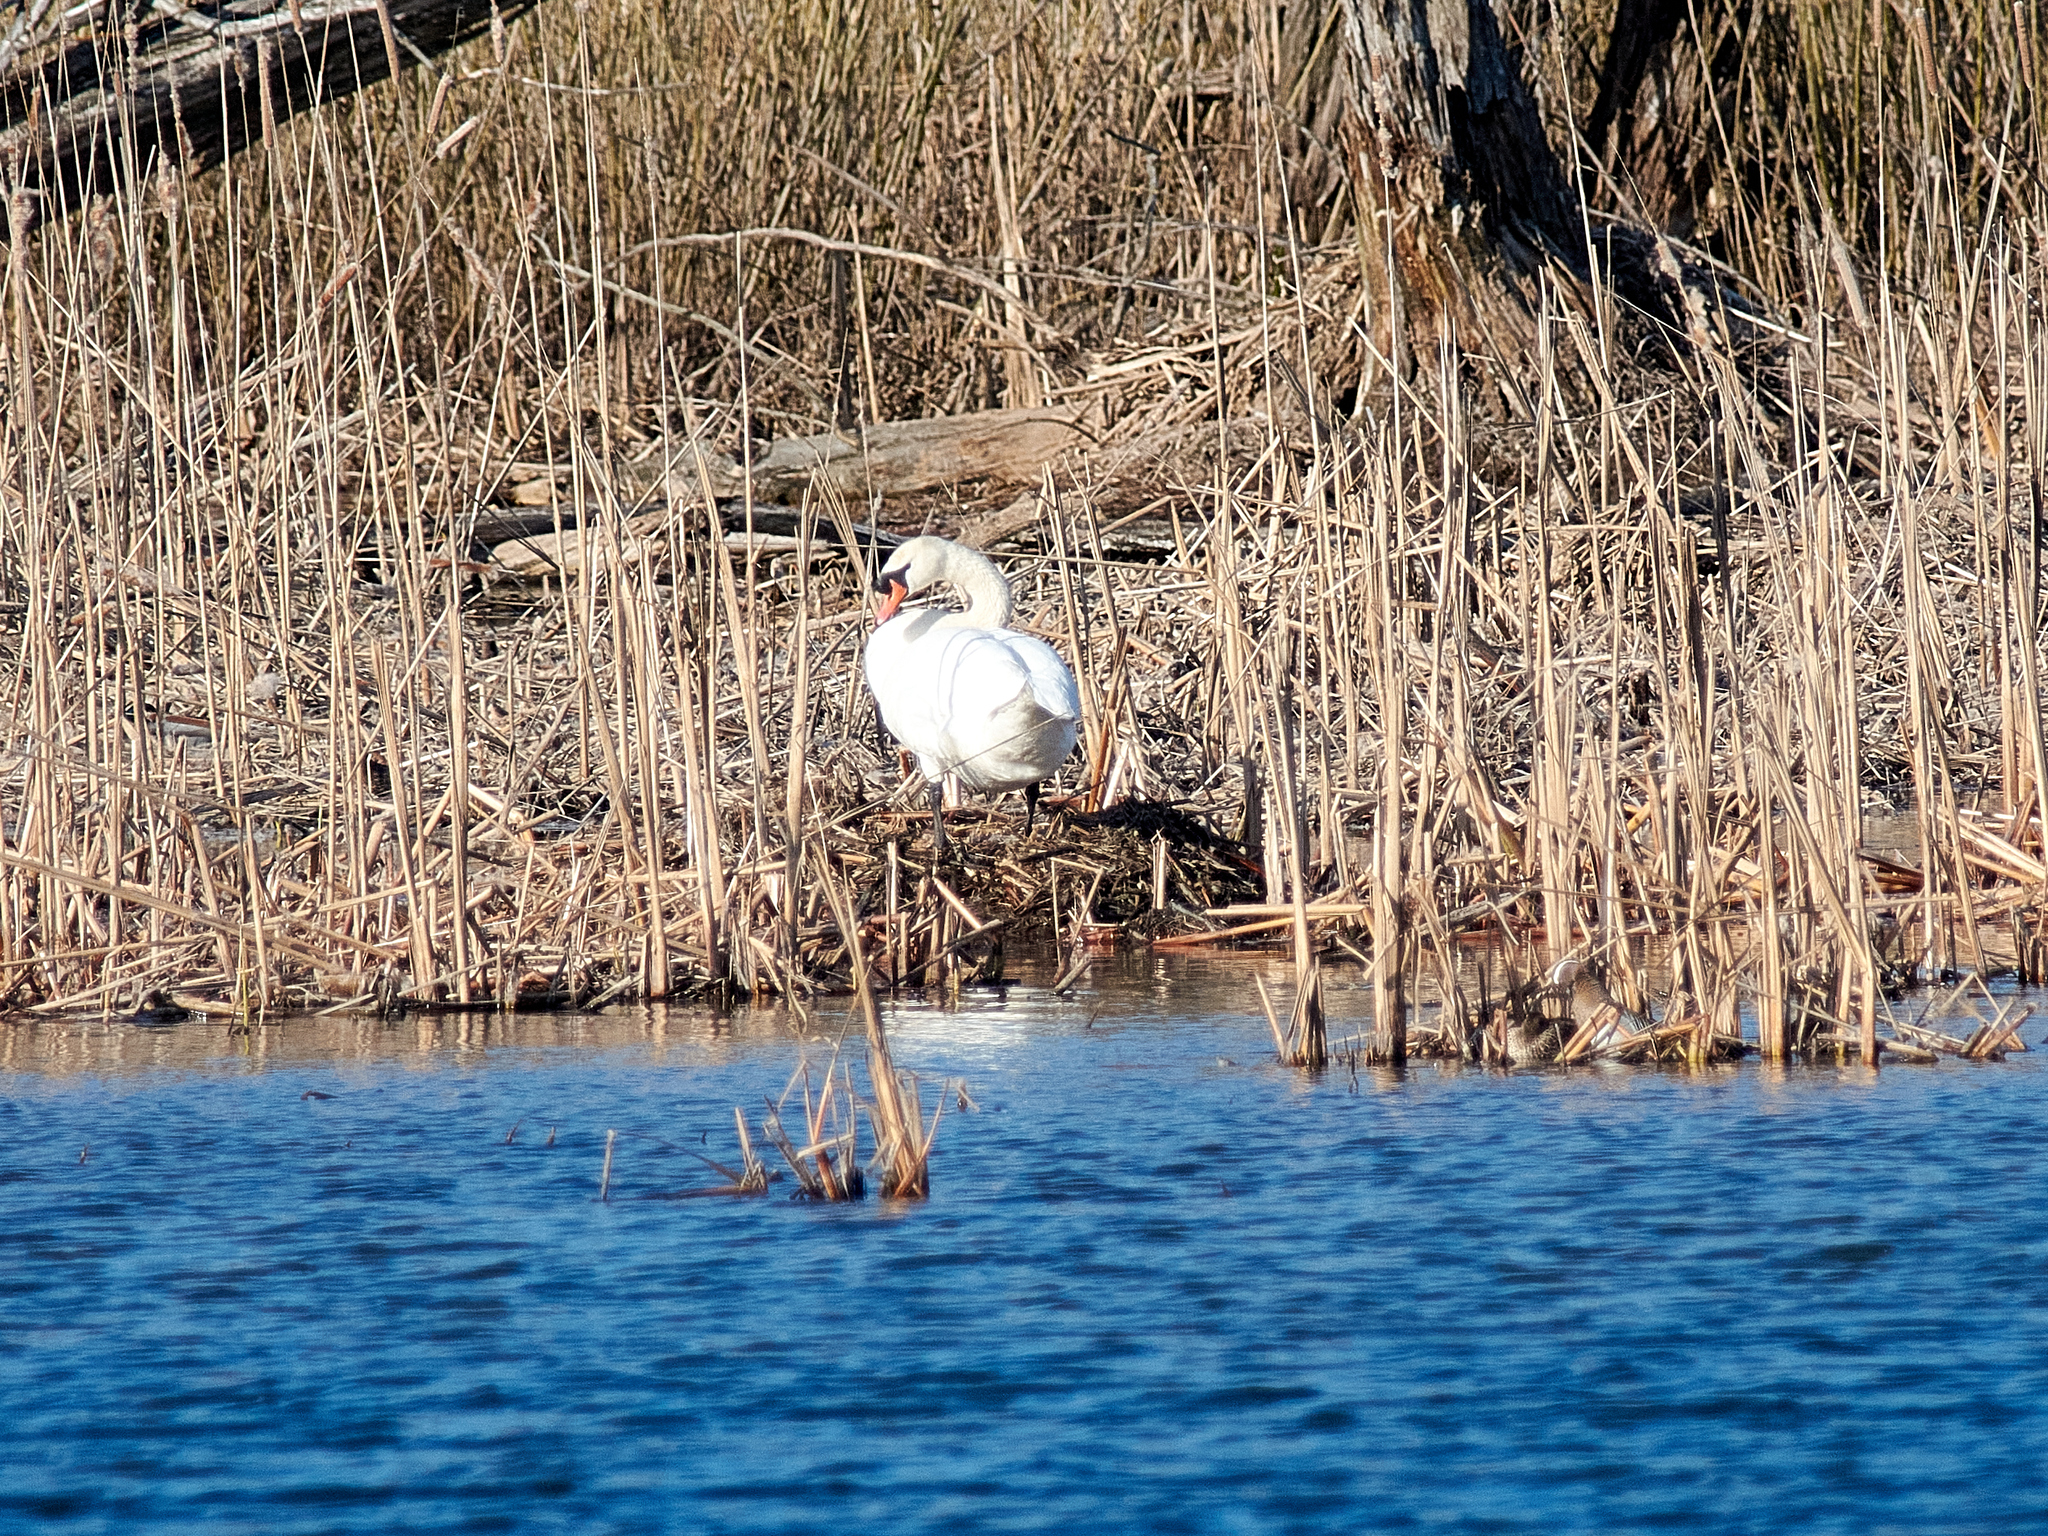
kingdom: Animalia
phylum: Chordata
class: Aves
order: Anseriformes
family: Anatidae
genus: Cygnus
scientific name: Cygnus olor
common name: Mute swan
